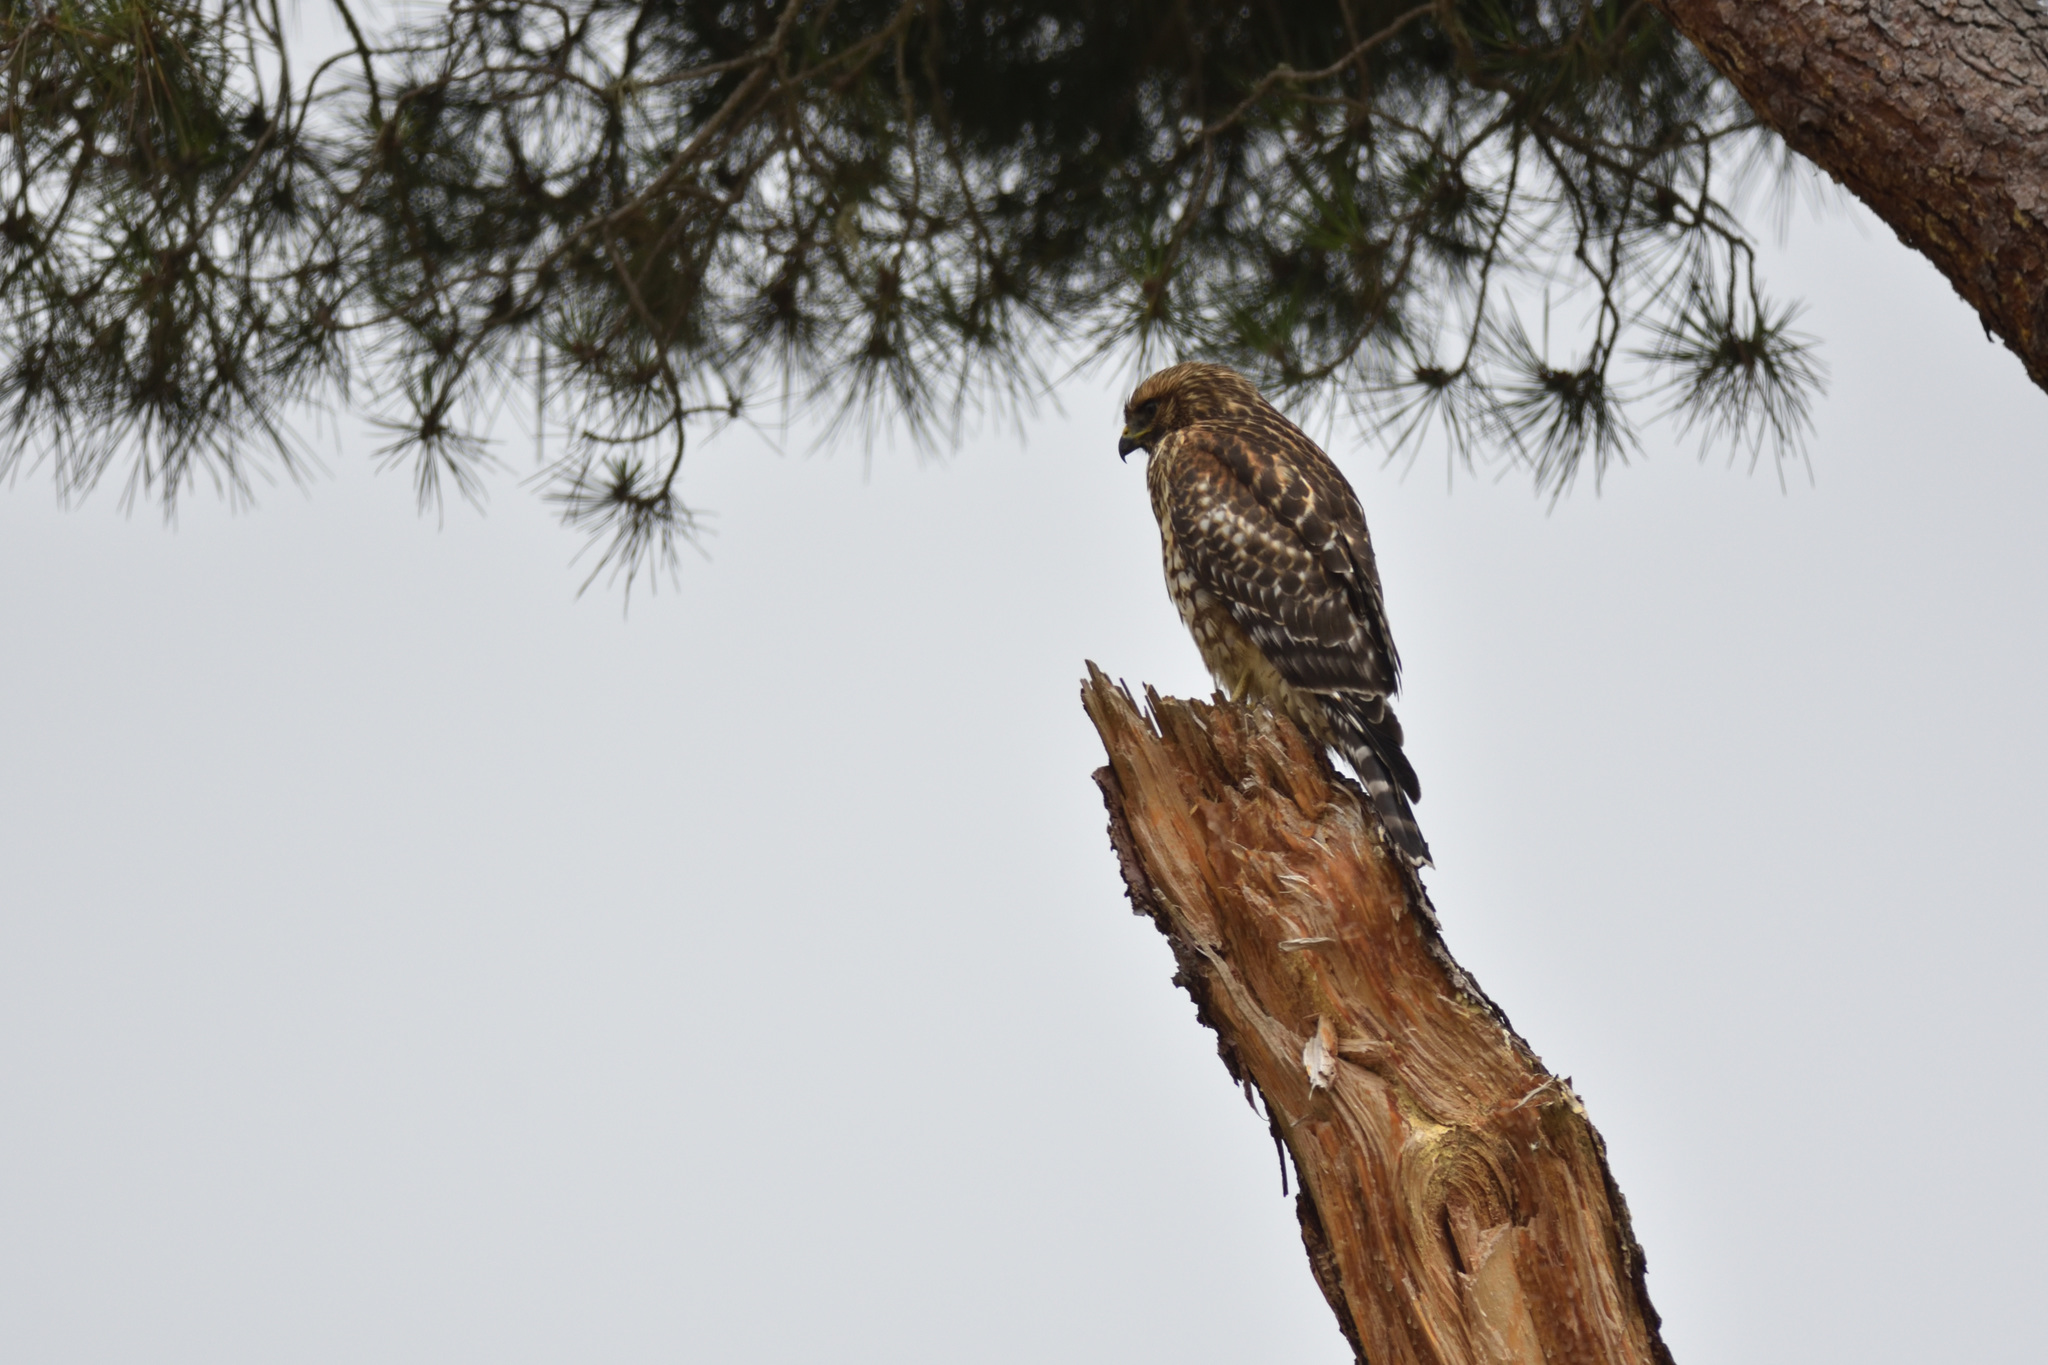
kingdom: Animalia
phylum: Chordata
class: Aves
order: Accipitriformes
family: Accipitridae
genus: Buteo
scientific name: Buteo lineatus
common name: Red-shouldered hawk
